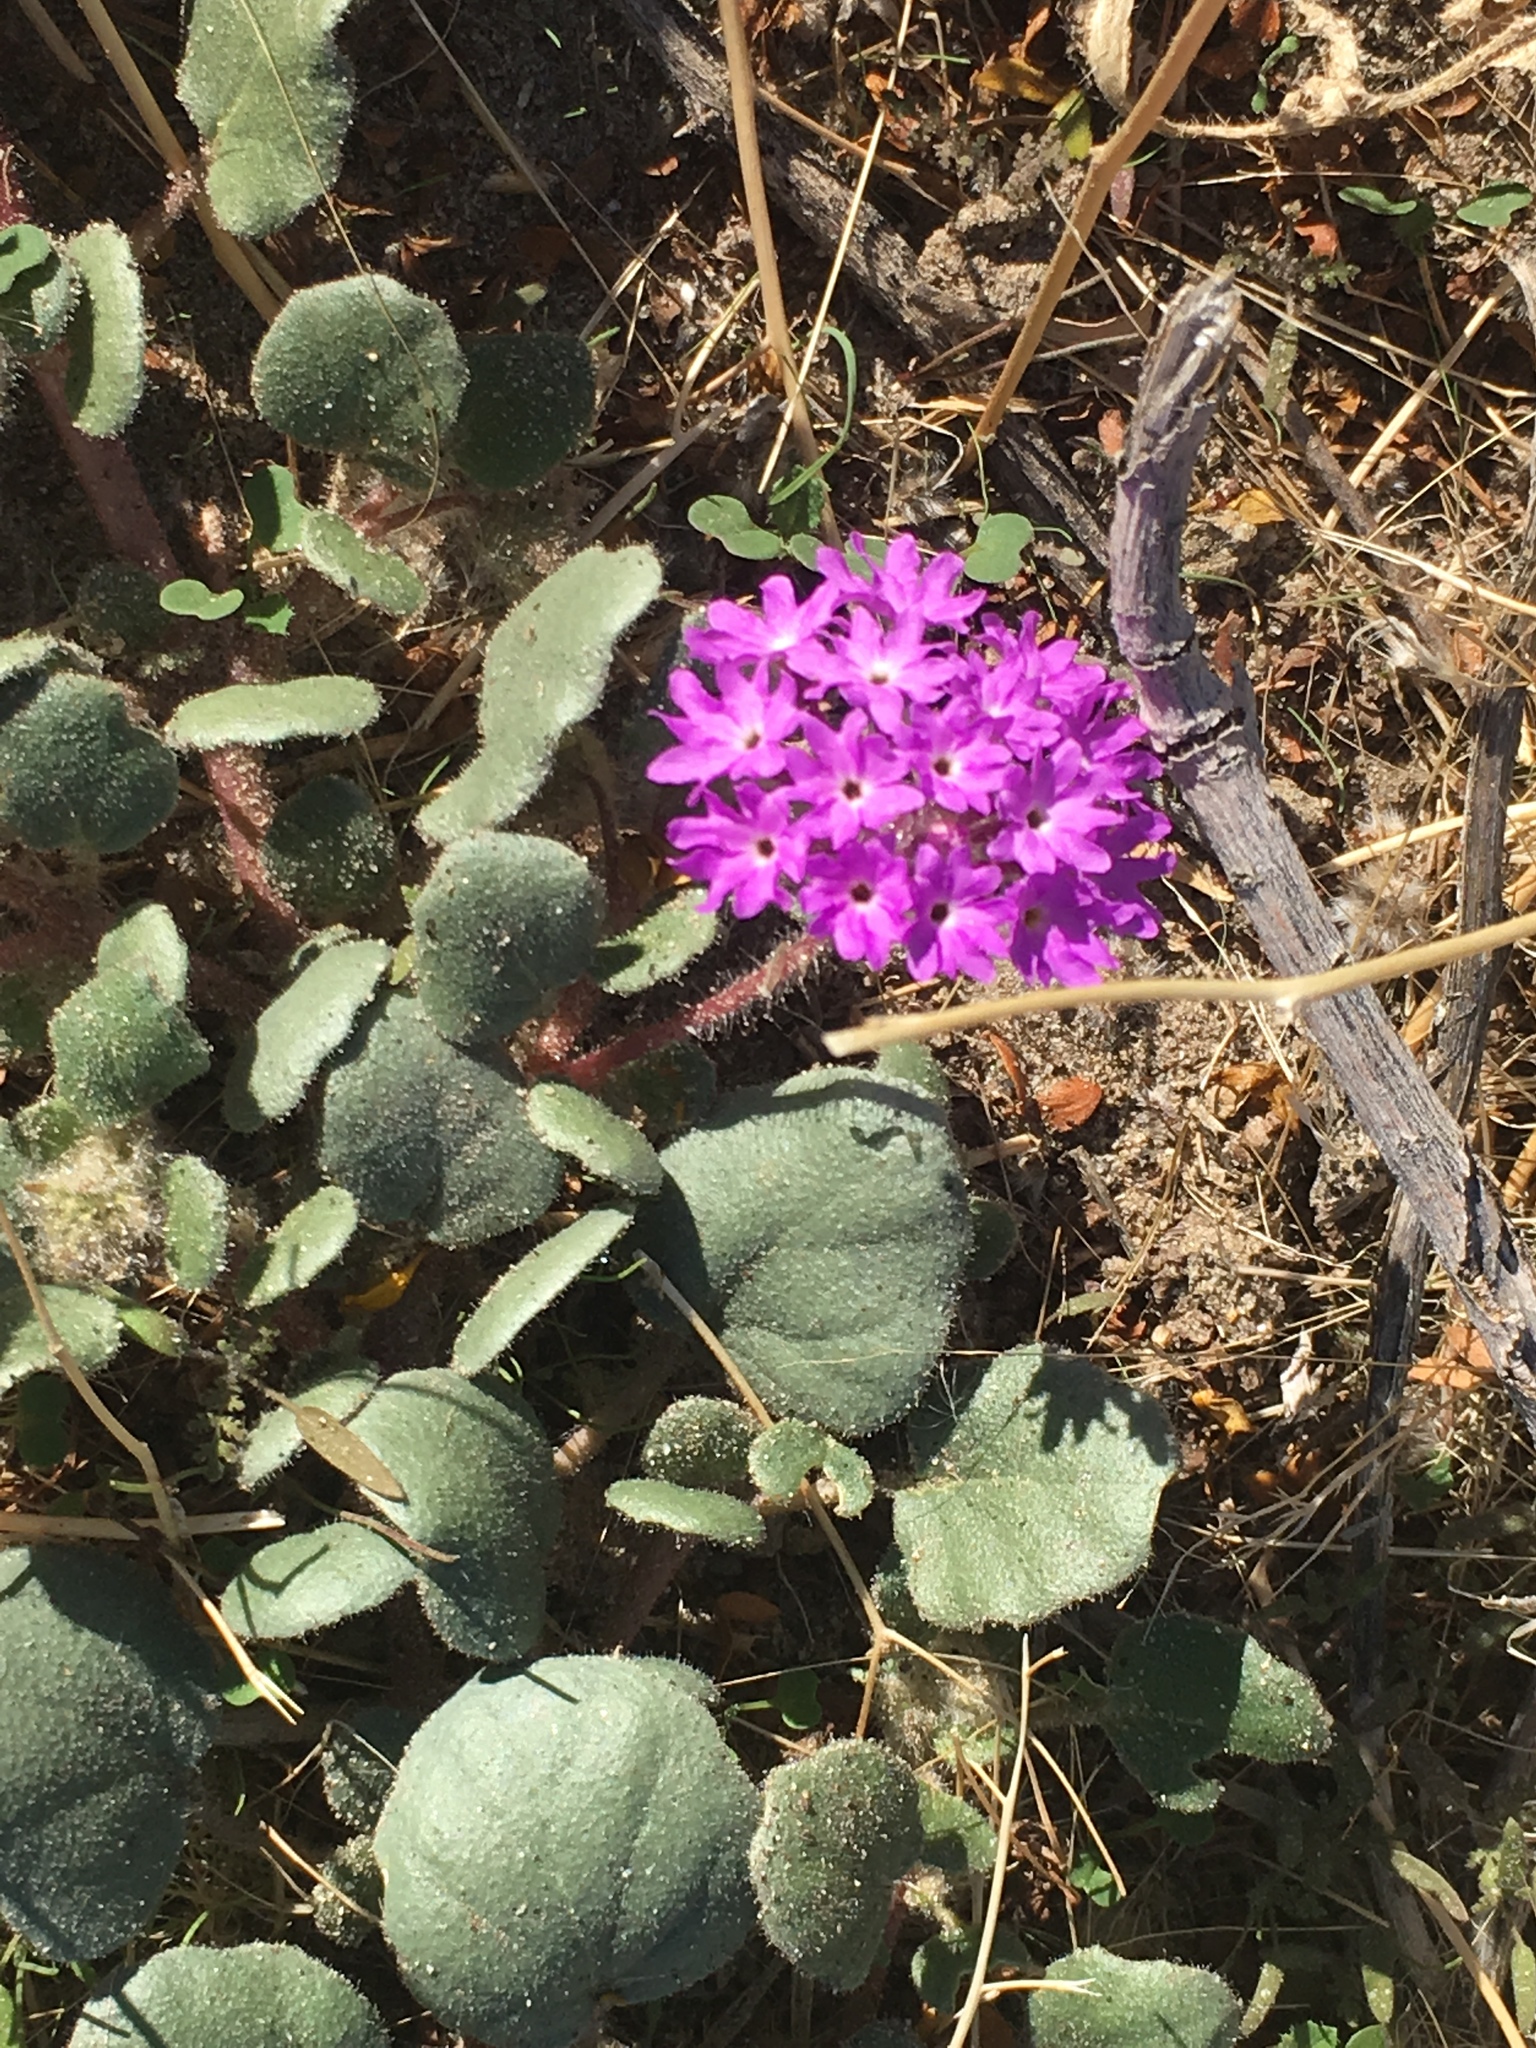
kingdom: Plantae
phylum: Tracheophyta
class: Magnoliopsida
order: Caryophyllales
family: Nyctaginaceae
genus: Abronia
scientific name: Abronia villosa
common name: Desert sand-verbena
